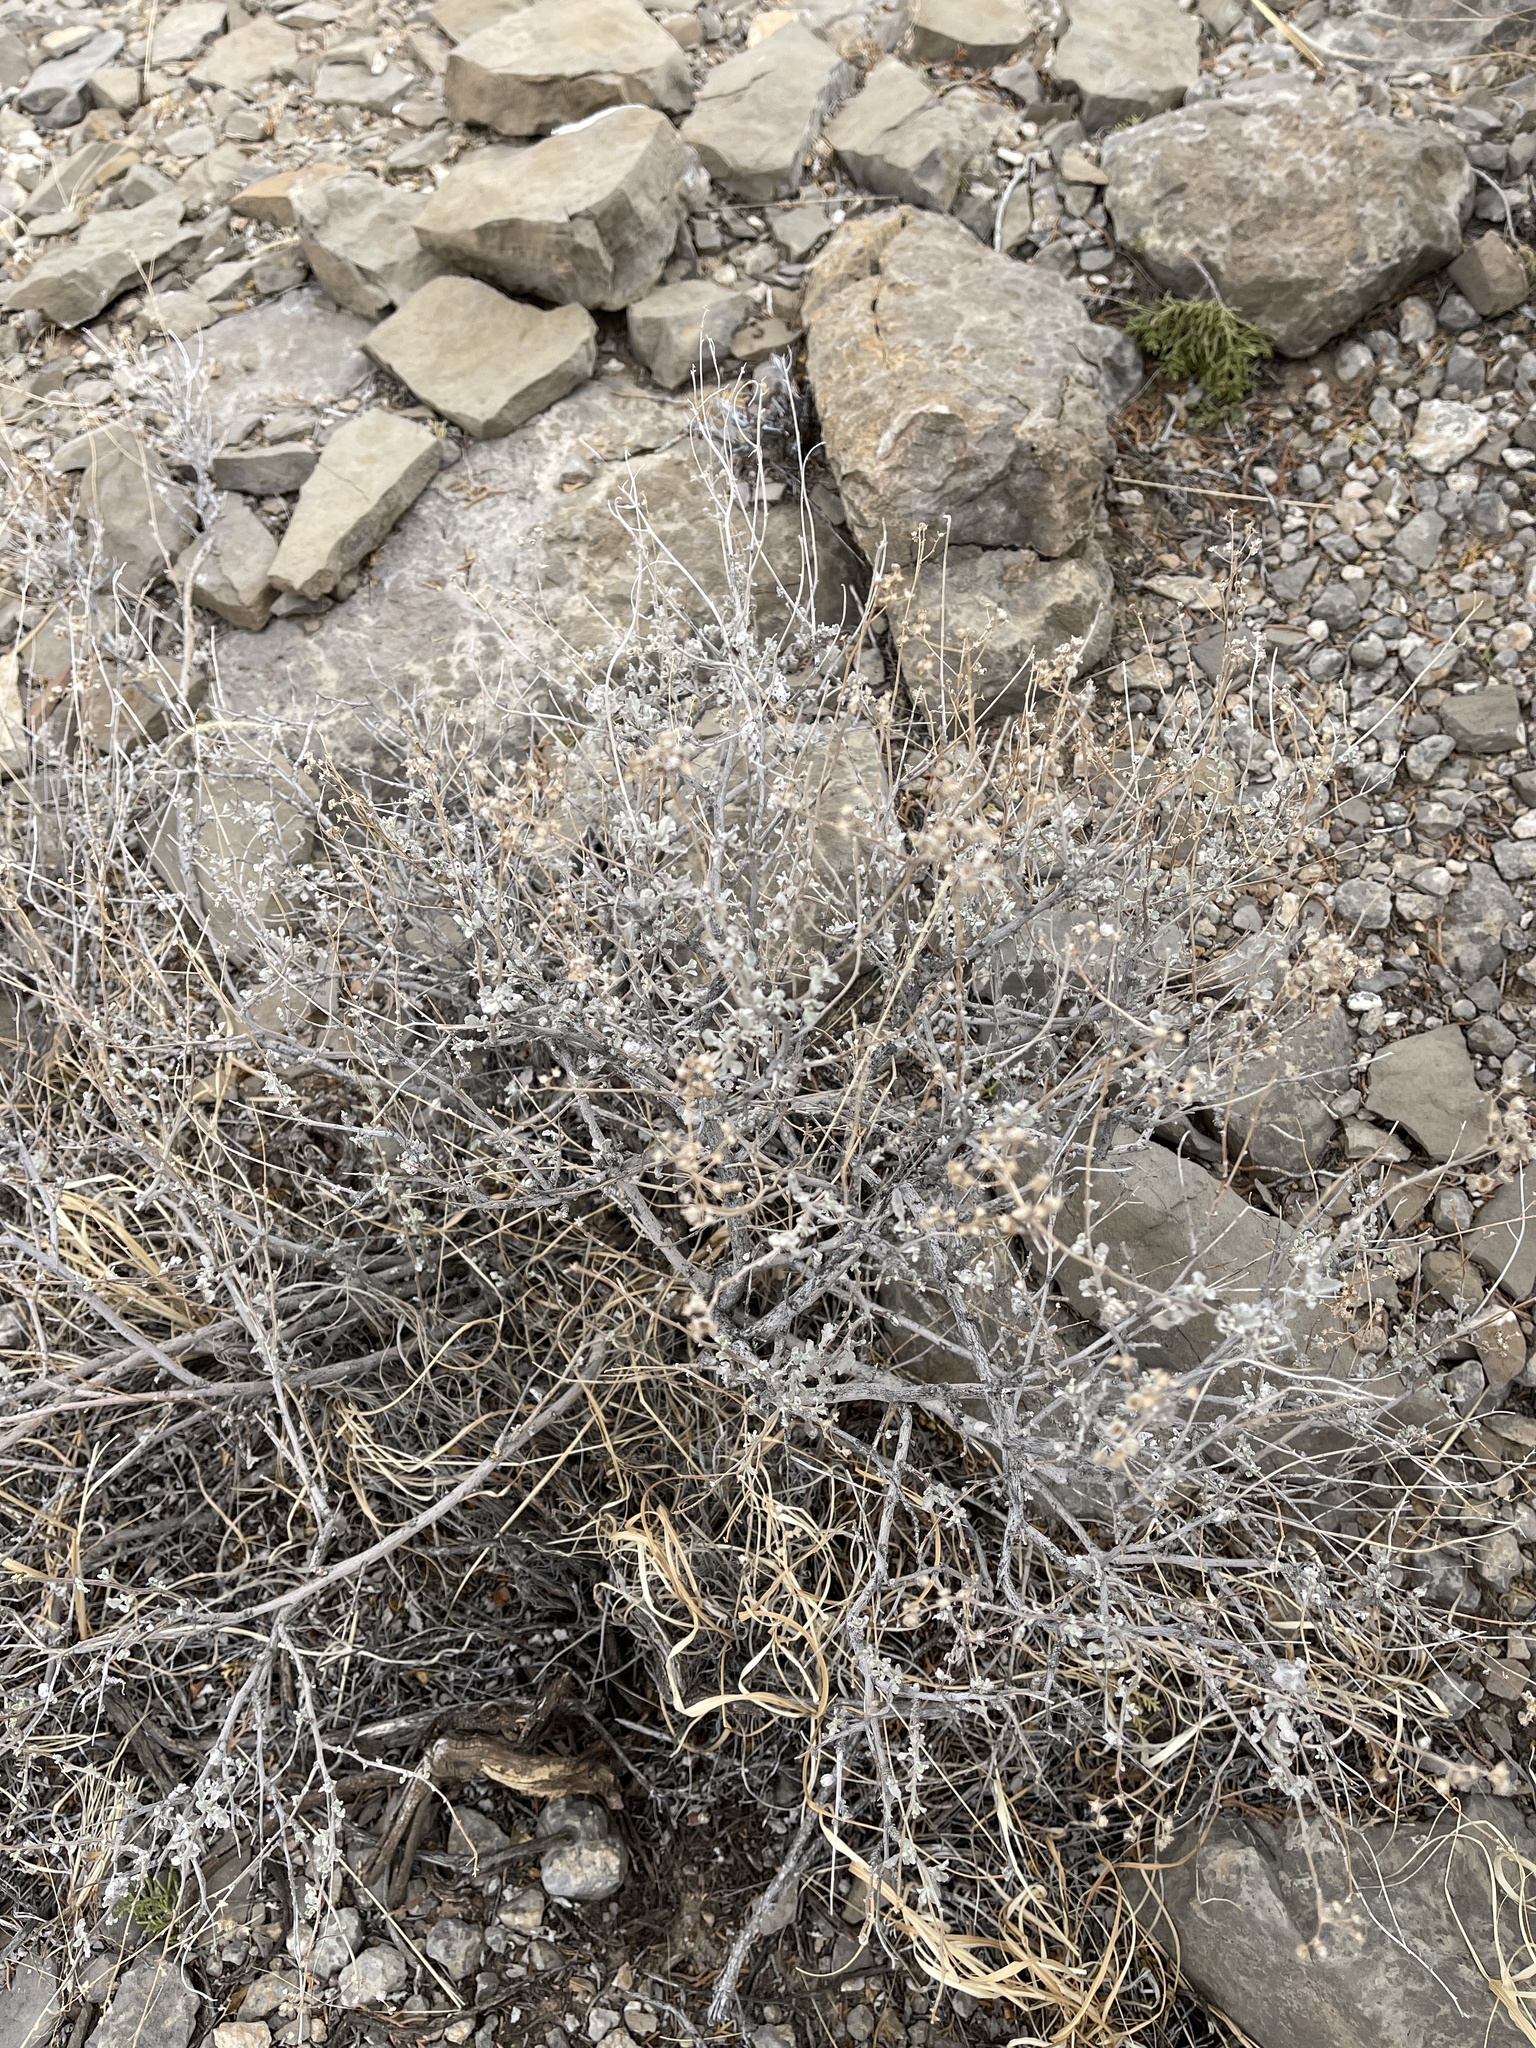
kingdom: Plantae
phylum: Tracheophyta
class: Magnoliopsida
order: Asterales
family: Asteraceae
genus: Parthenium
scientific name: Parthenium incanum
